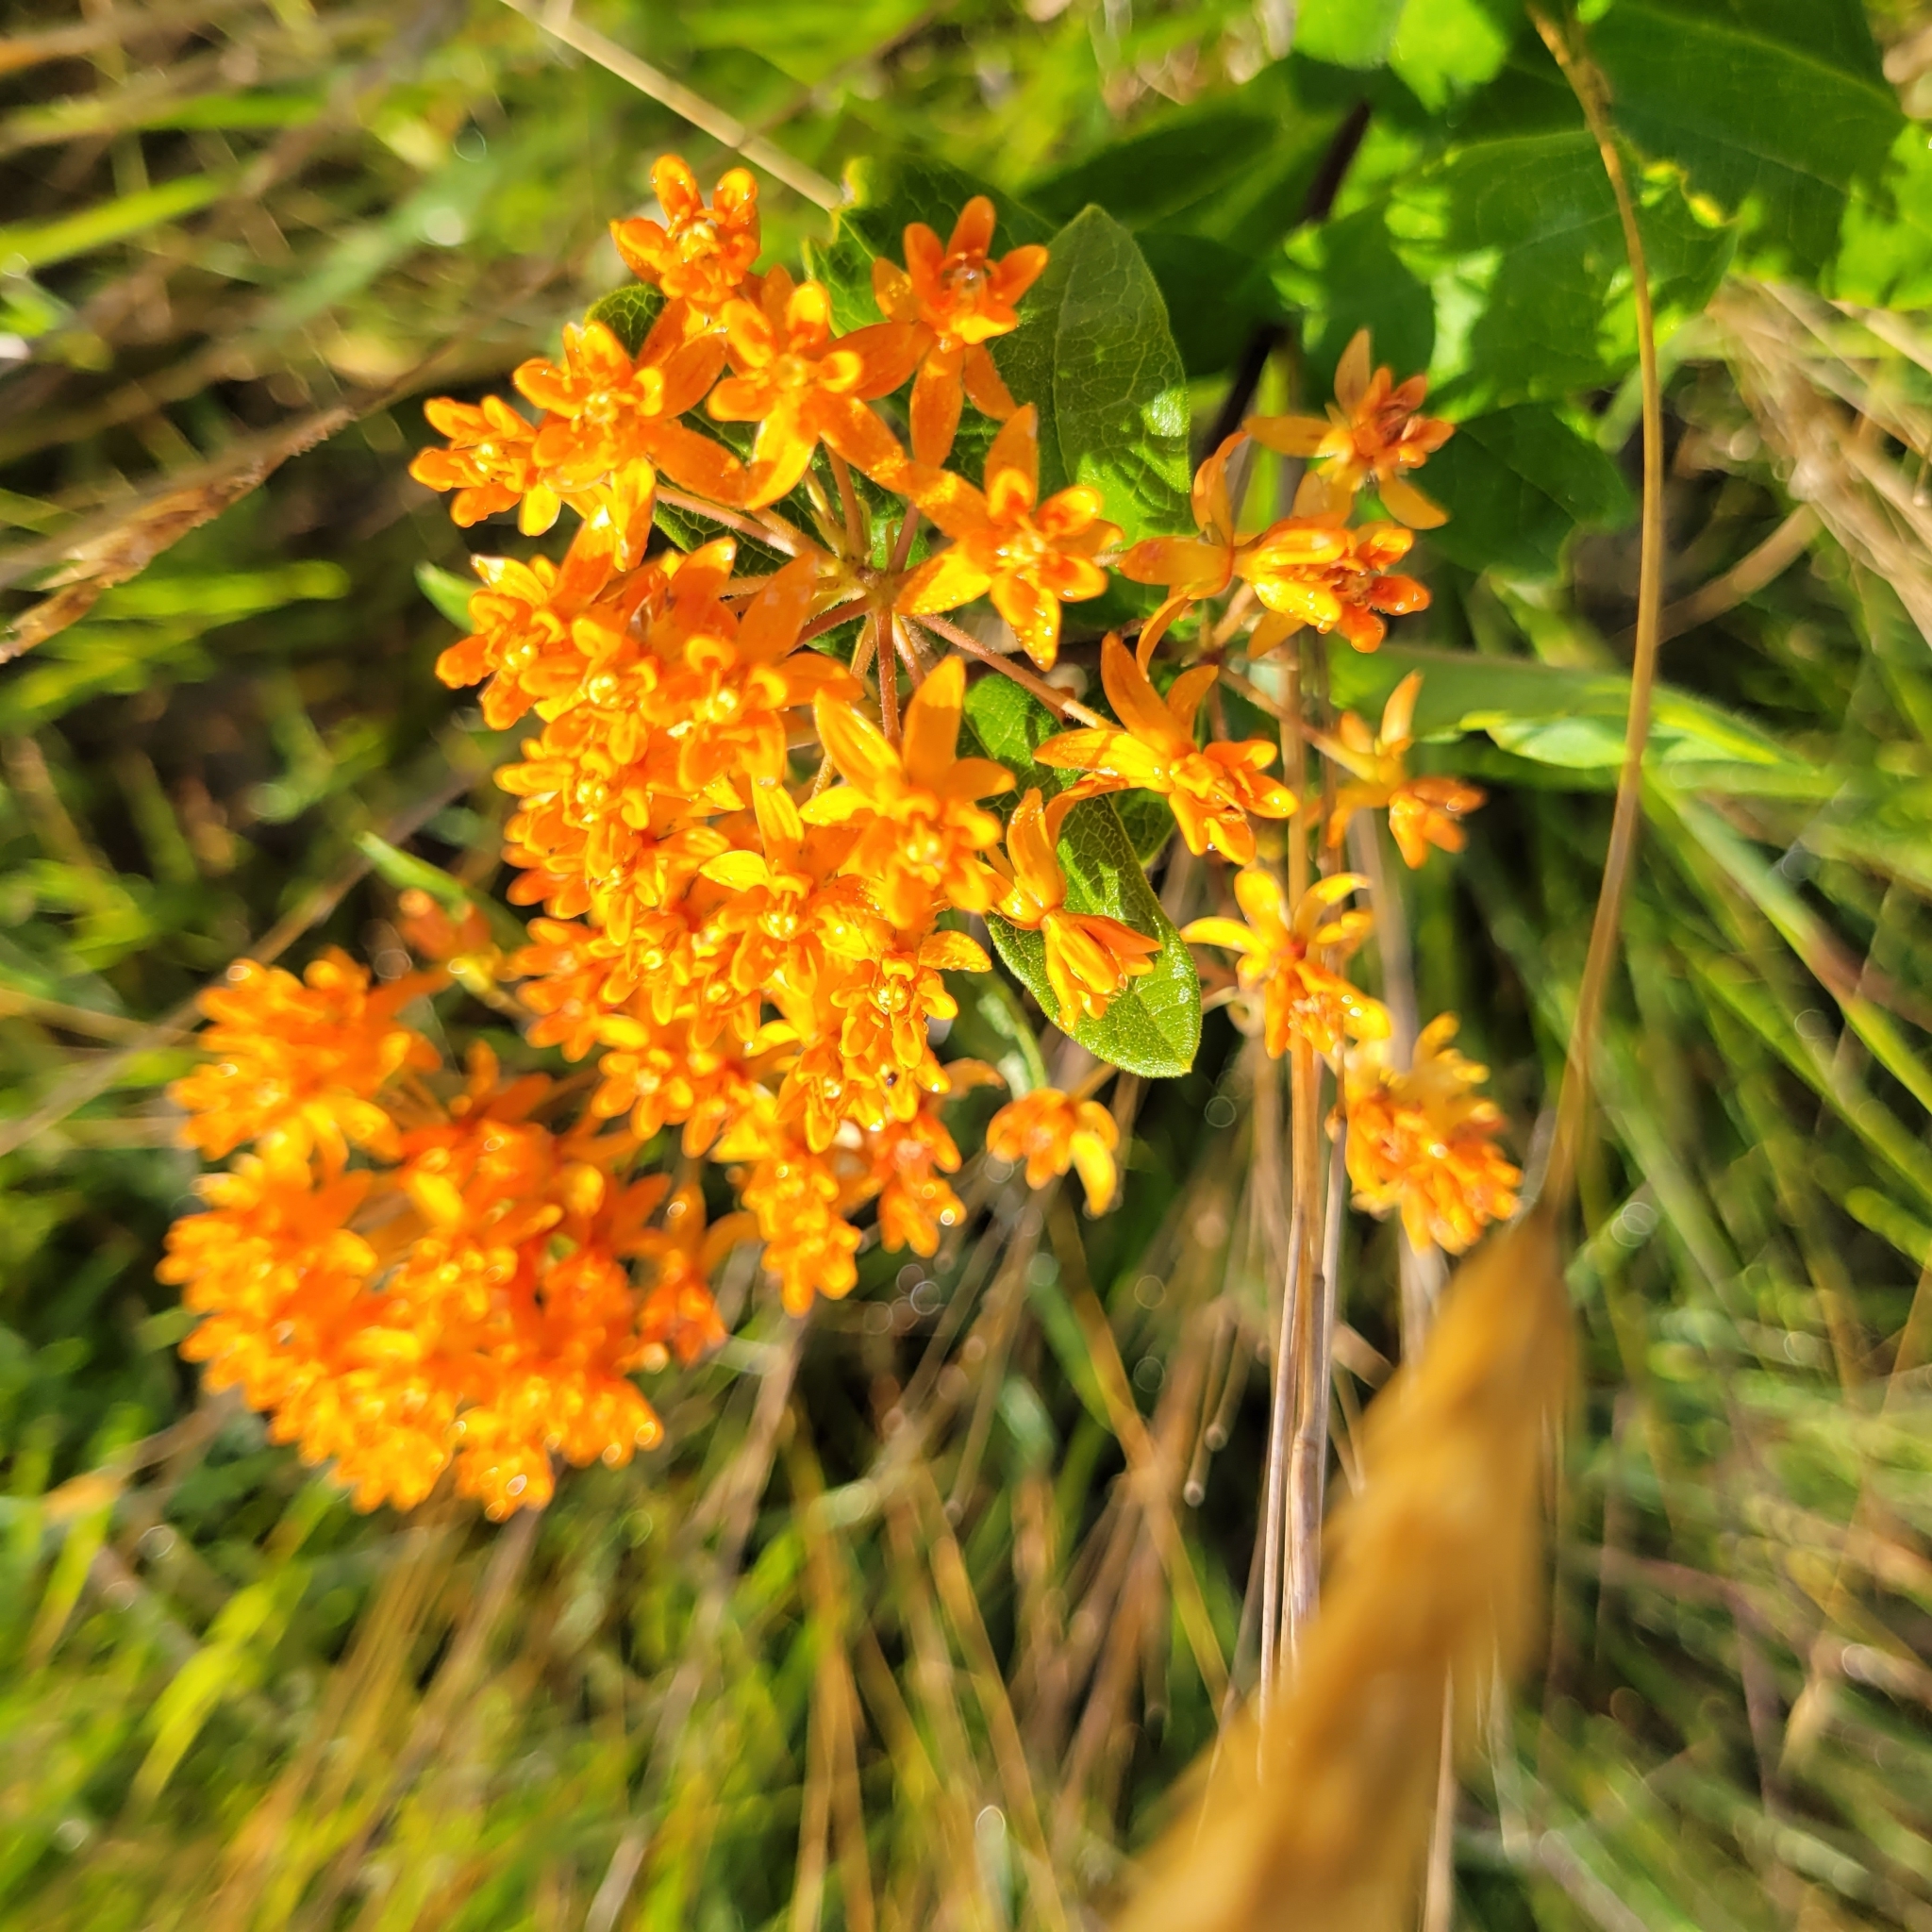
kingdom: Plantae
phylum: Tracheophyta
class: Magnoliopsida
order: Gentianales
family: Apocynaceae
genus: Asclepias
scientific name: Asclepias tuberosa
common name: Butterfly milkweed
